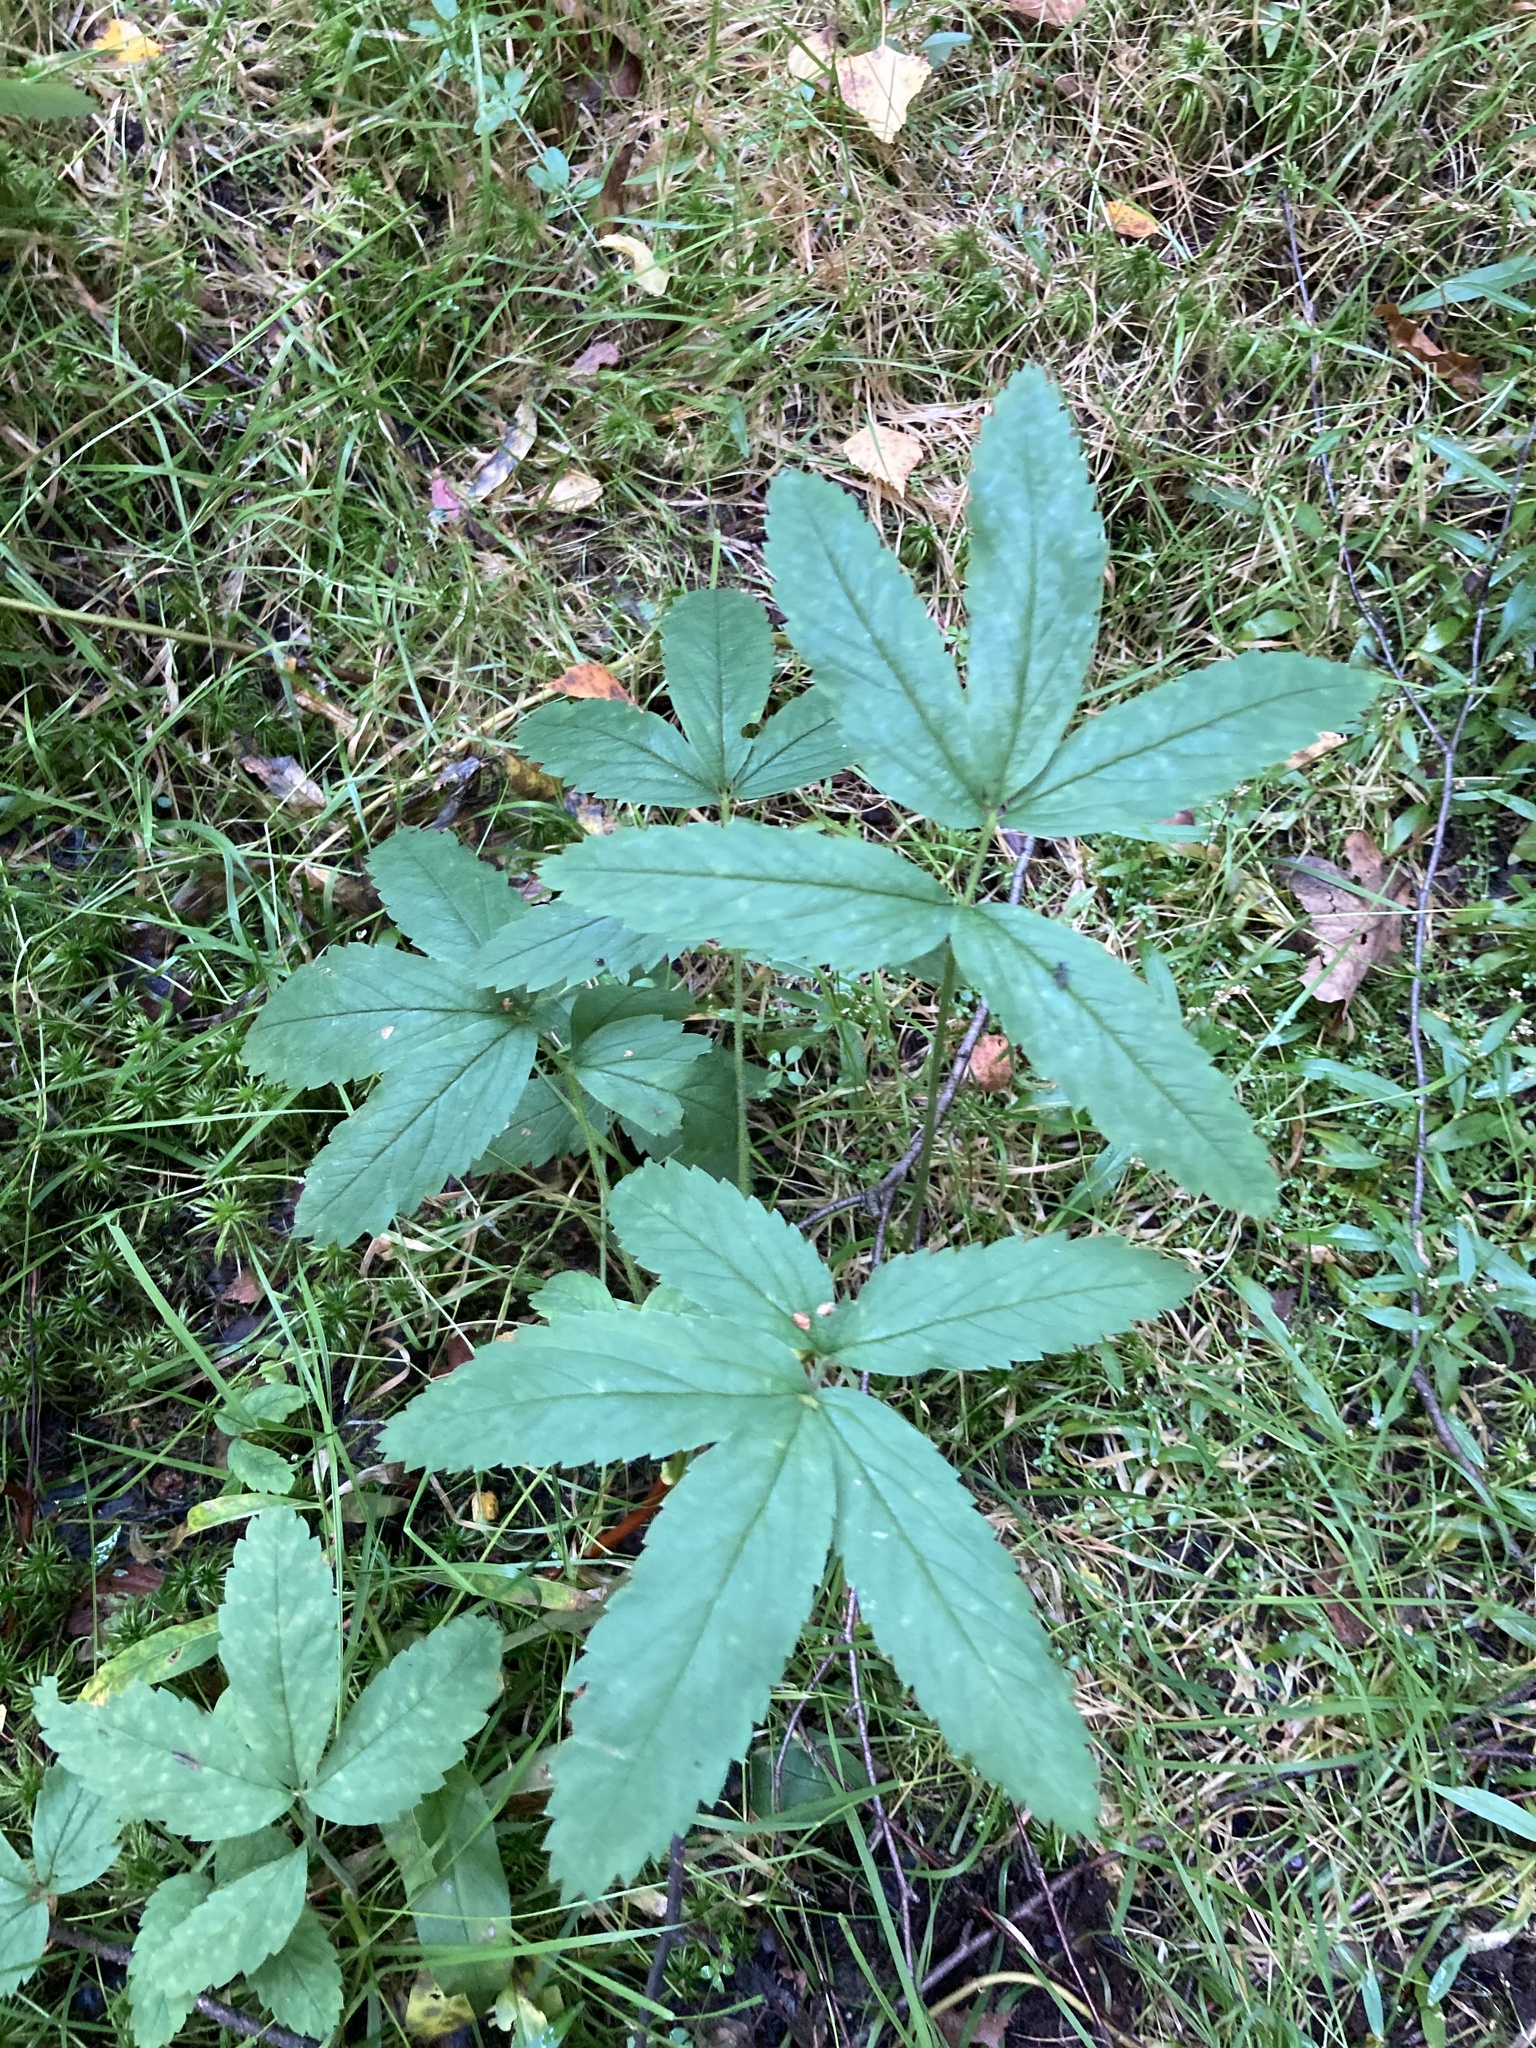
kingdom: Plantae
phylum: Tracheophyta
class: Magnoliopsida
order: Rosales
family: Rosaceae
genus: Comarum
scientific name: Comarum palustre
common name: Marsh cinquefoil
